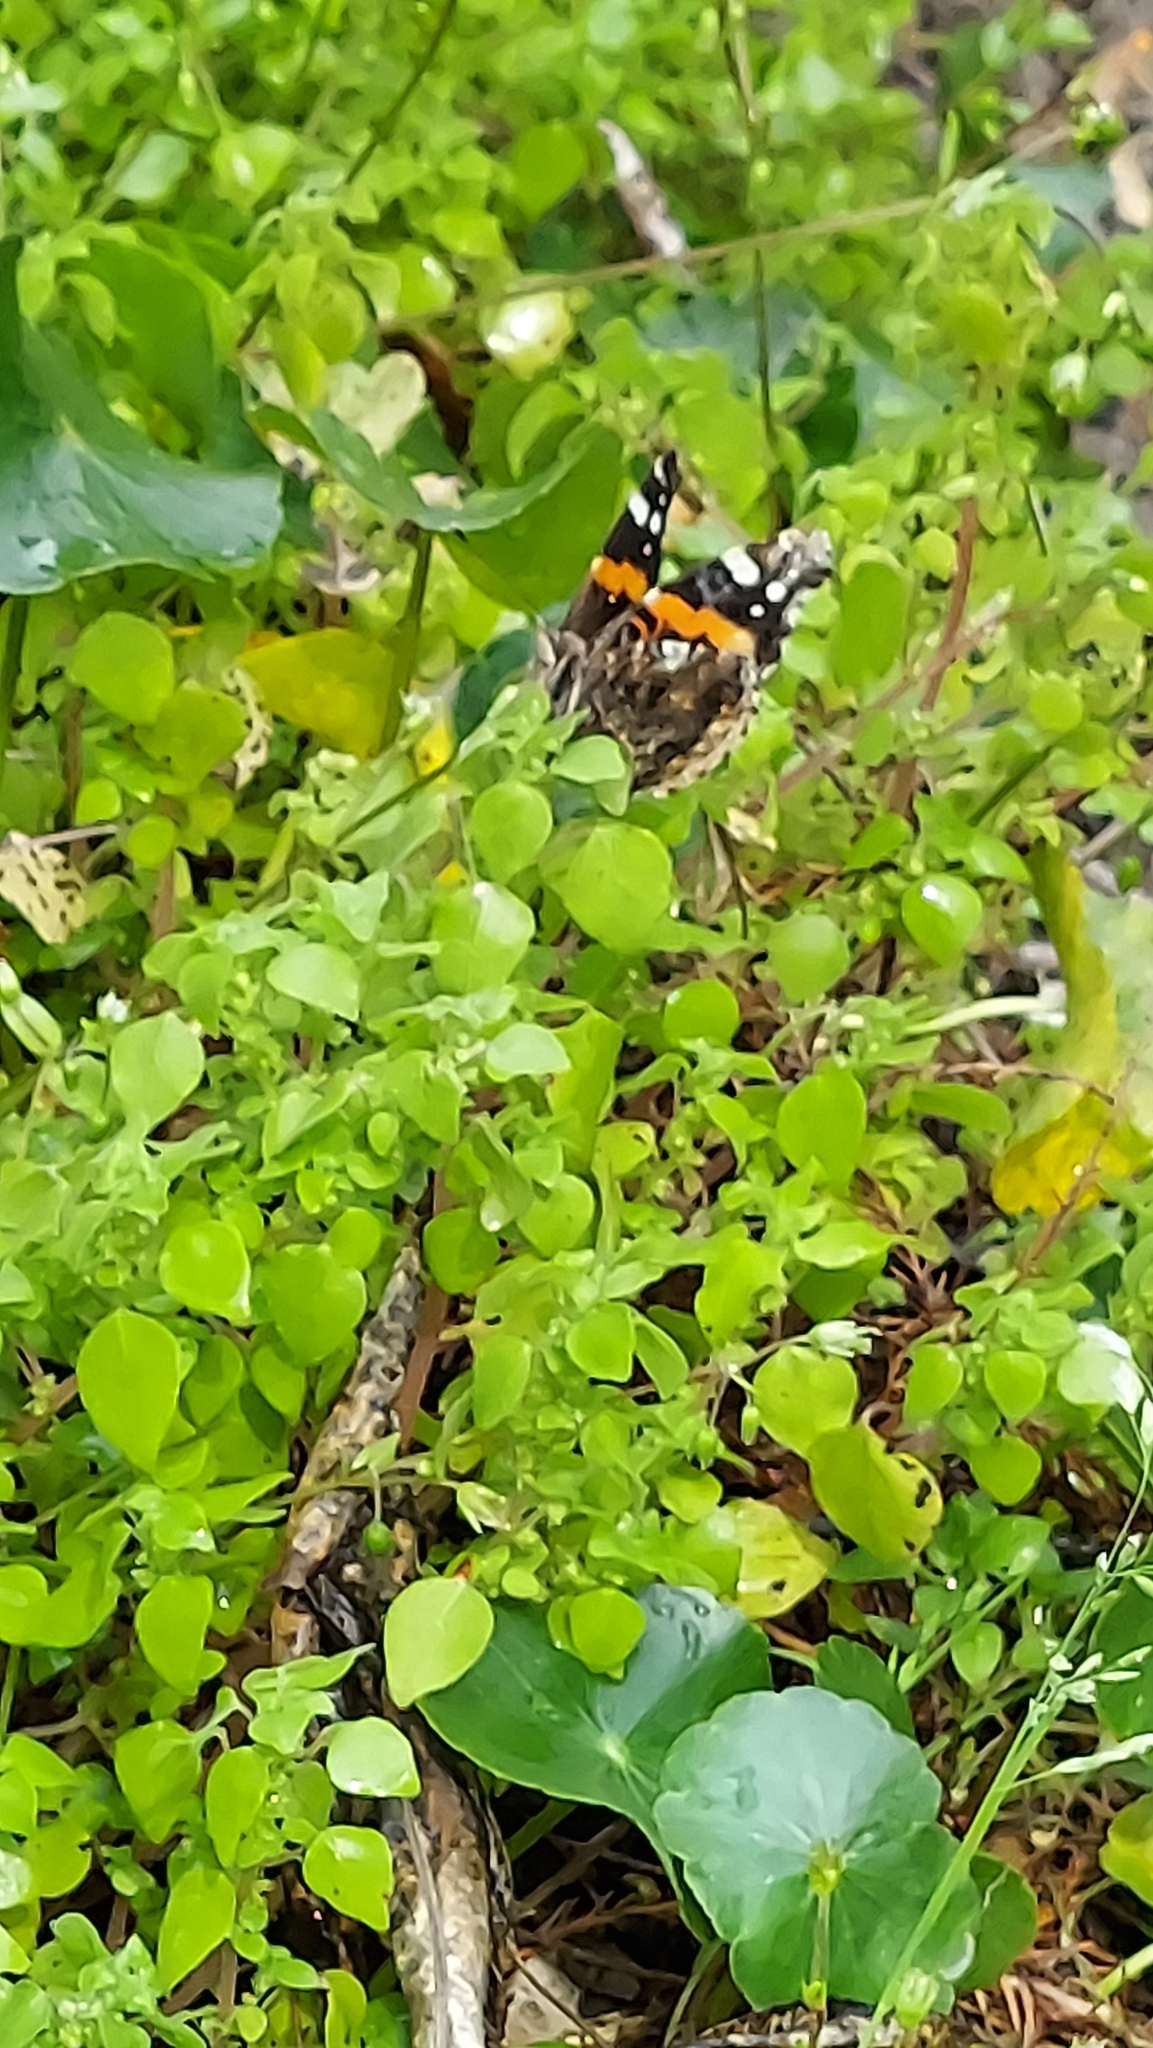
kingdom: Animalia
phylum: Arthropoda
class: Insecta
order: Lepidoptera
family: Nymphalidae
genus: Vanessa
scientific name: Vanessa atalanta
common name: Red admiral
